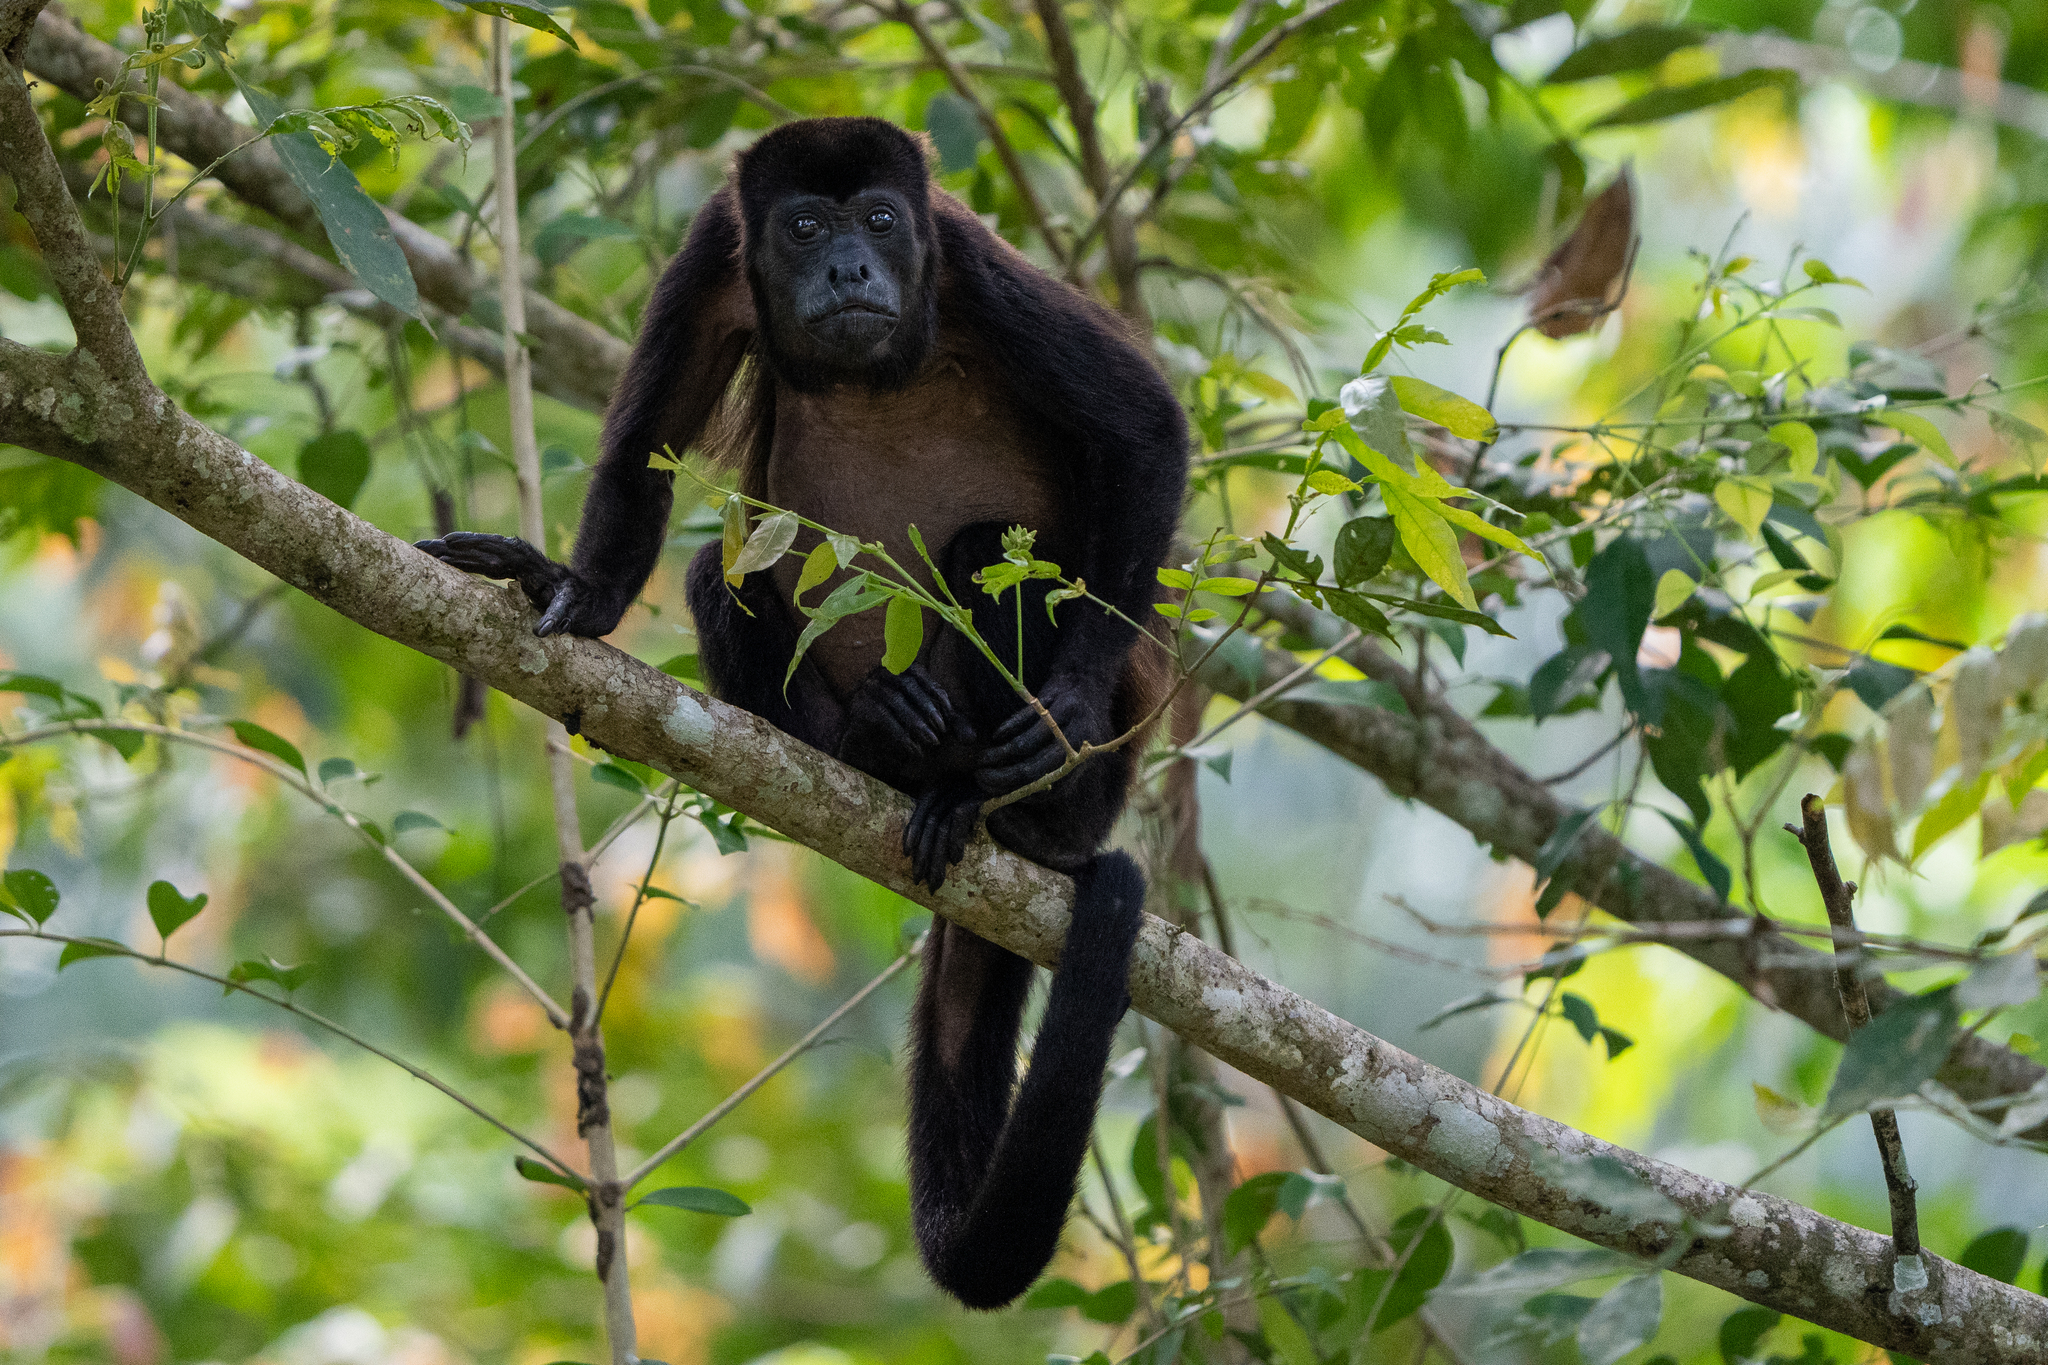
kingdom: Animalia
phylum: Chordata
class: Mammalia
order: Primates
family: Atelidae
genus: Alouatta
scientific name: Alouatta palliata
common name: Mantled howler
